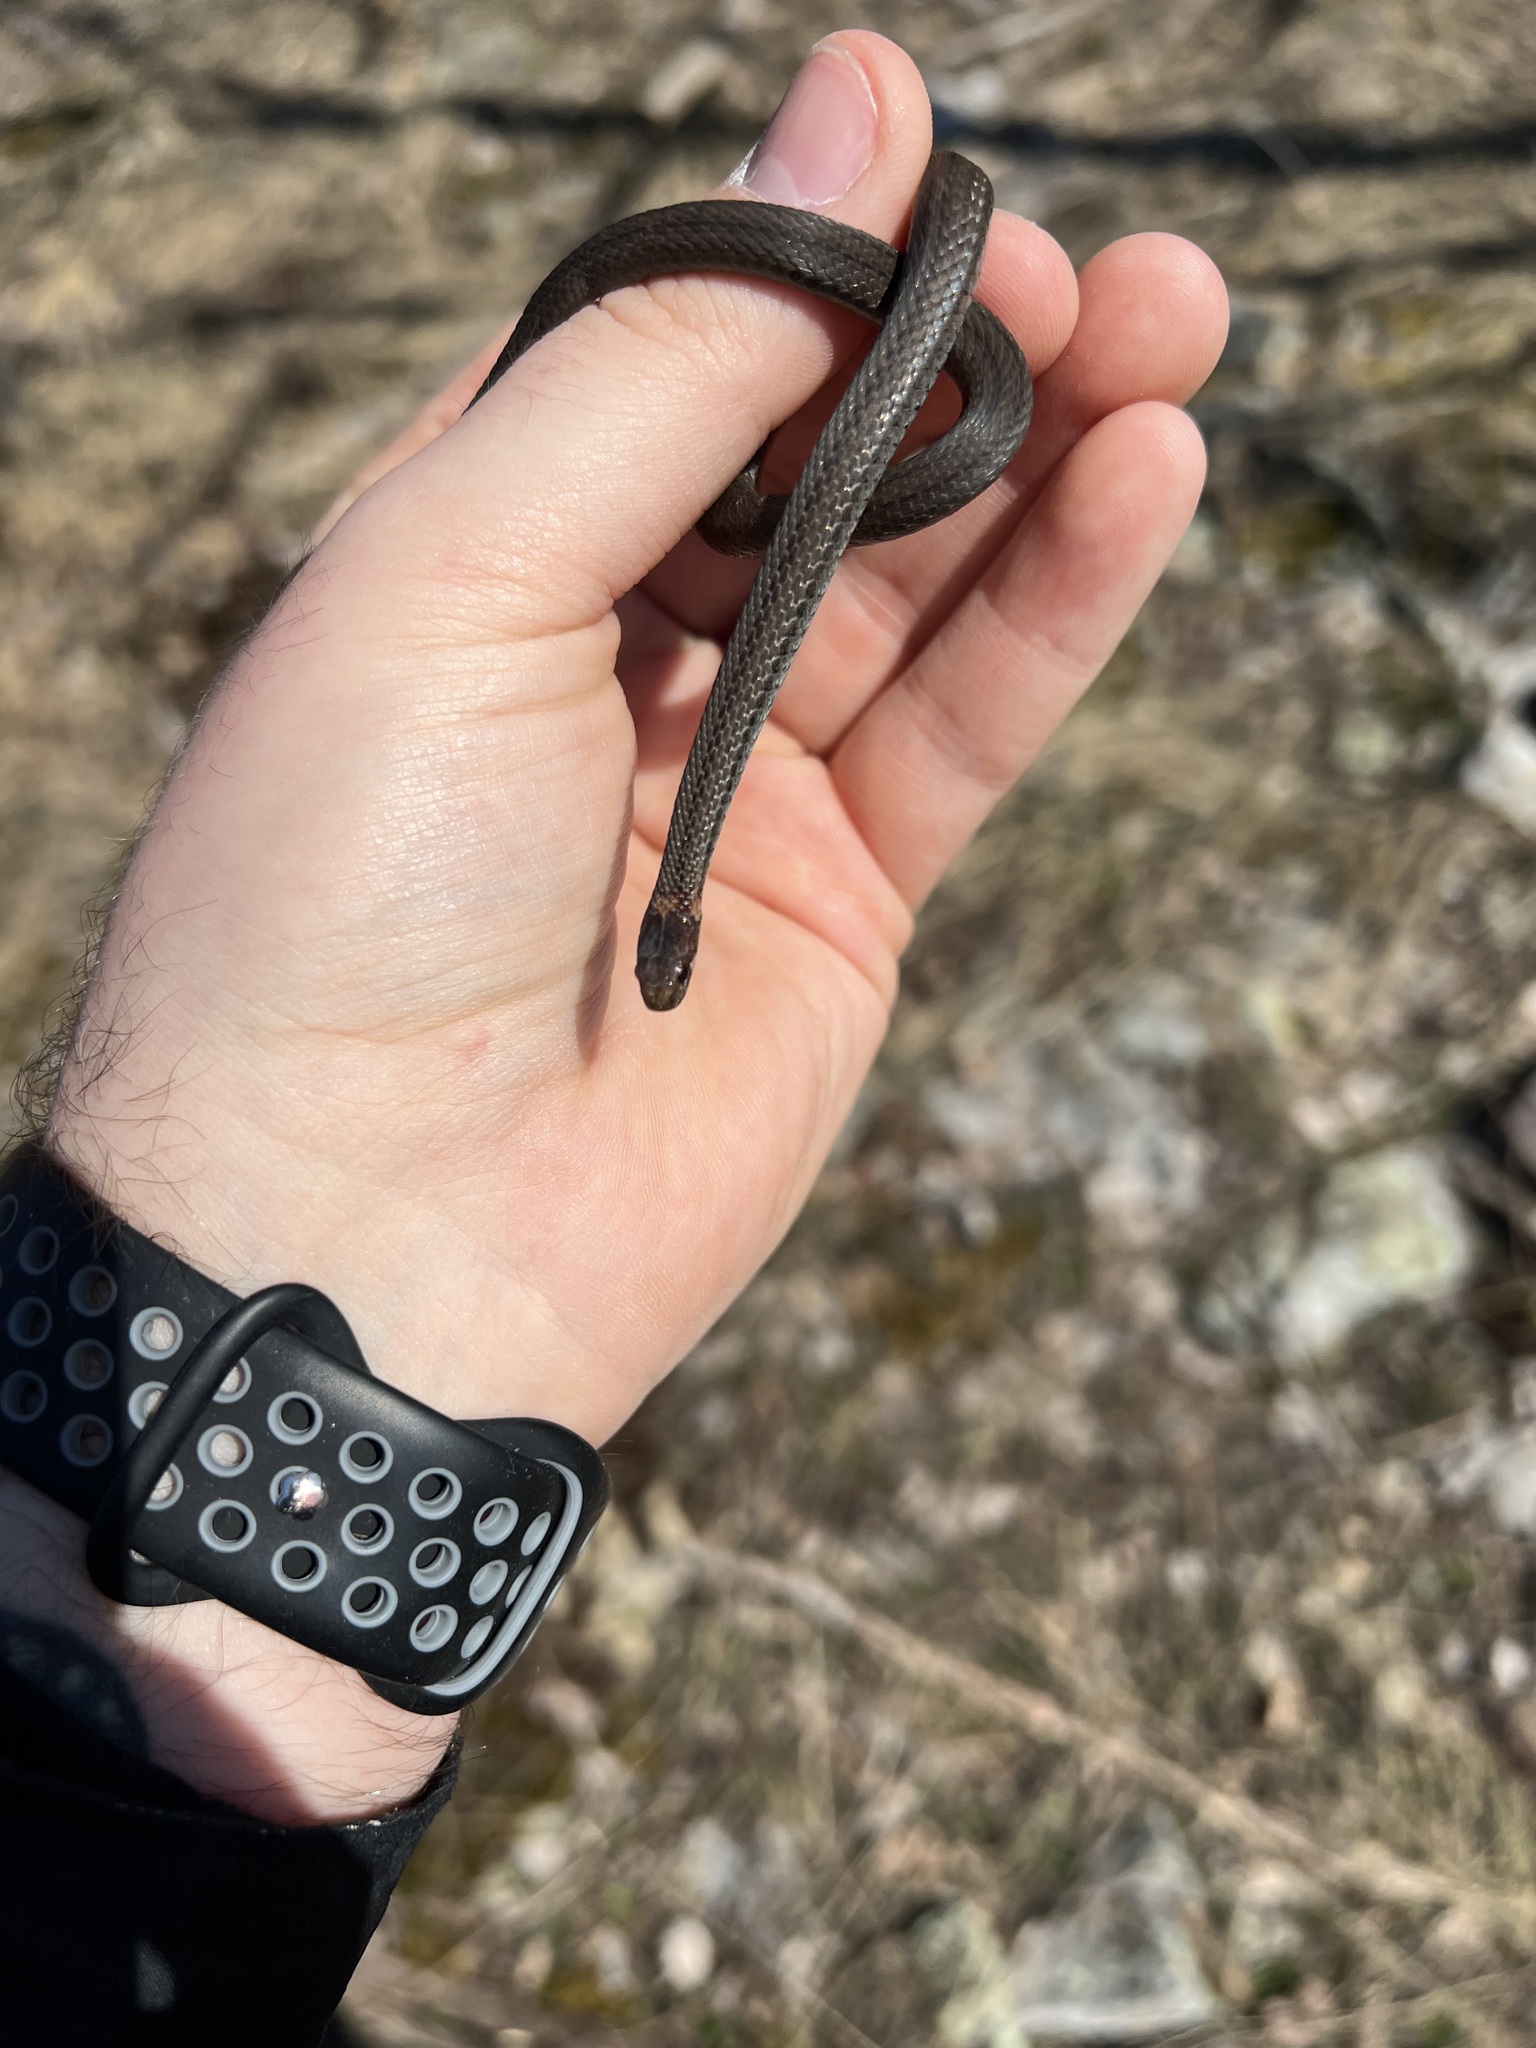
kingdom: Animalia
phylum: Chordata
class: Squamata
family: Colubridae
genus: Storeria
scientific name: Storeria occipitomaculata
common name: Redbelly snake
